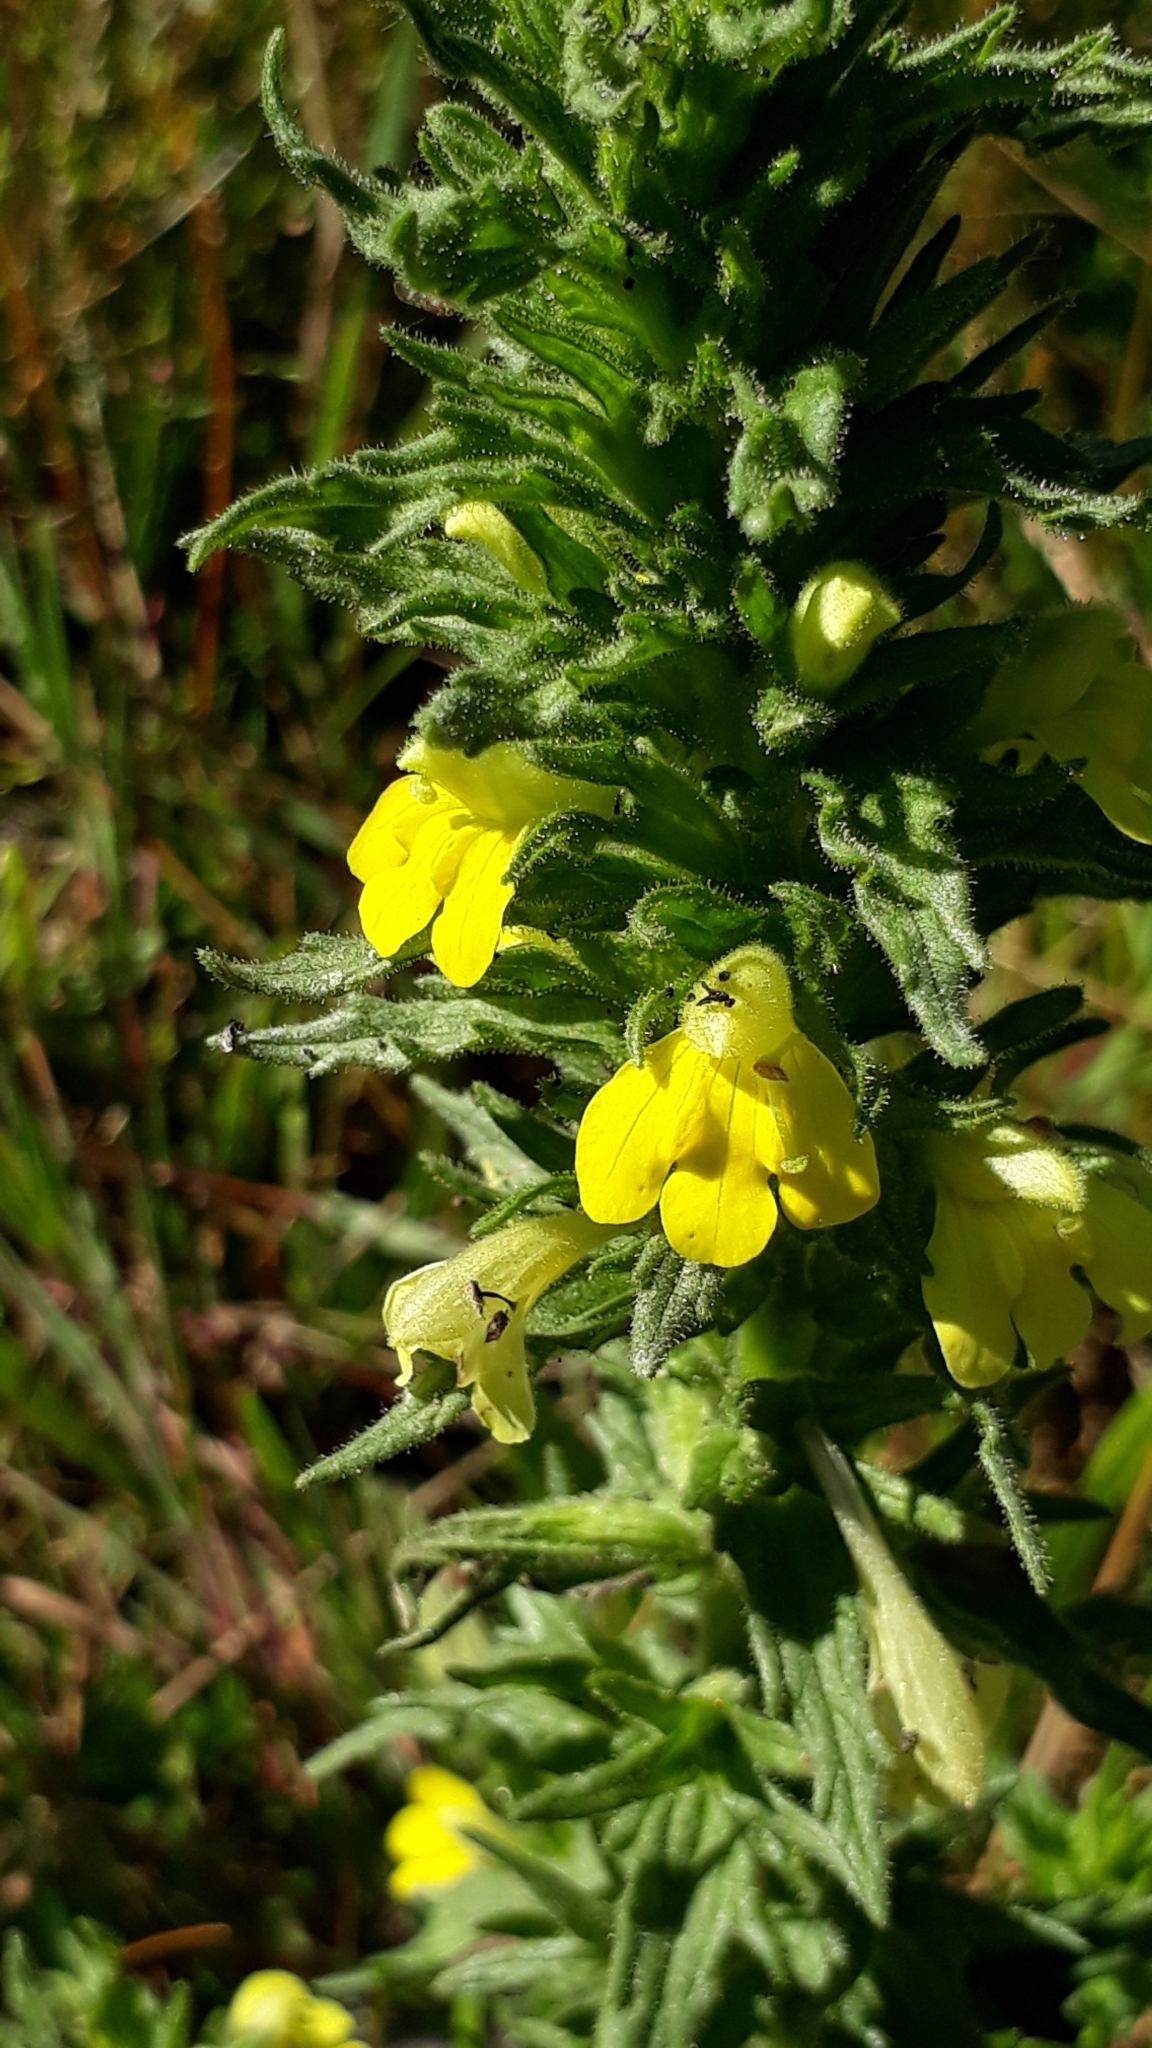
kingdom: Plantae
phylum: Tracheophyta
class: Magnoliopsida
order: Lamiales
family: Orobanchaceae
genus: Bellardia
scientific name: Bellardia viscosa
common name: Sticky parentucellia
